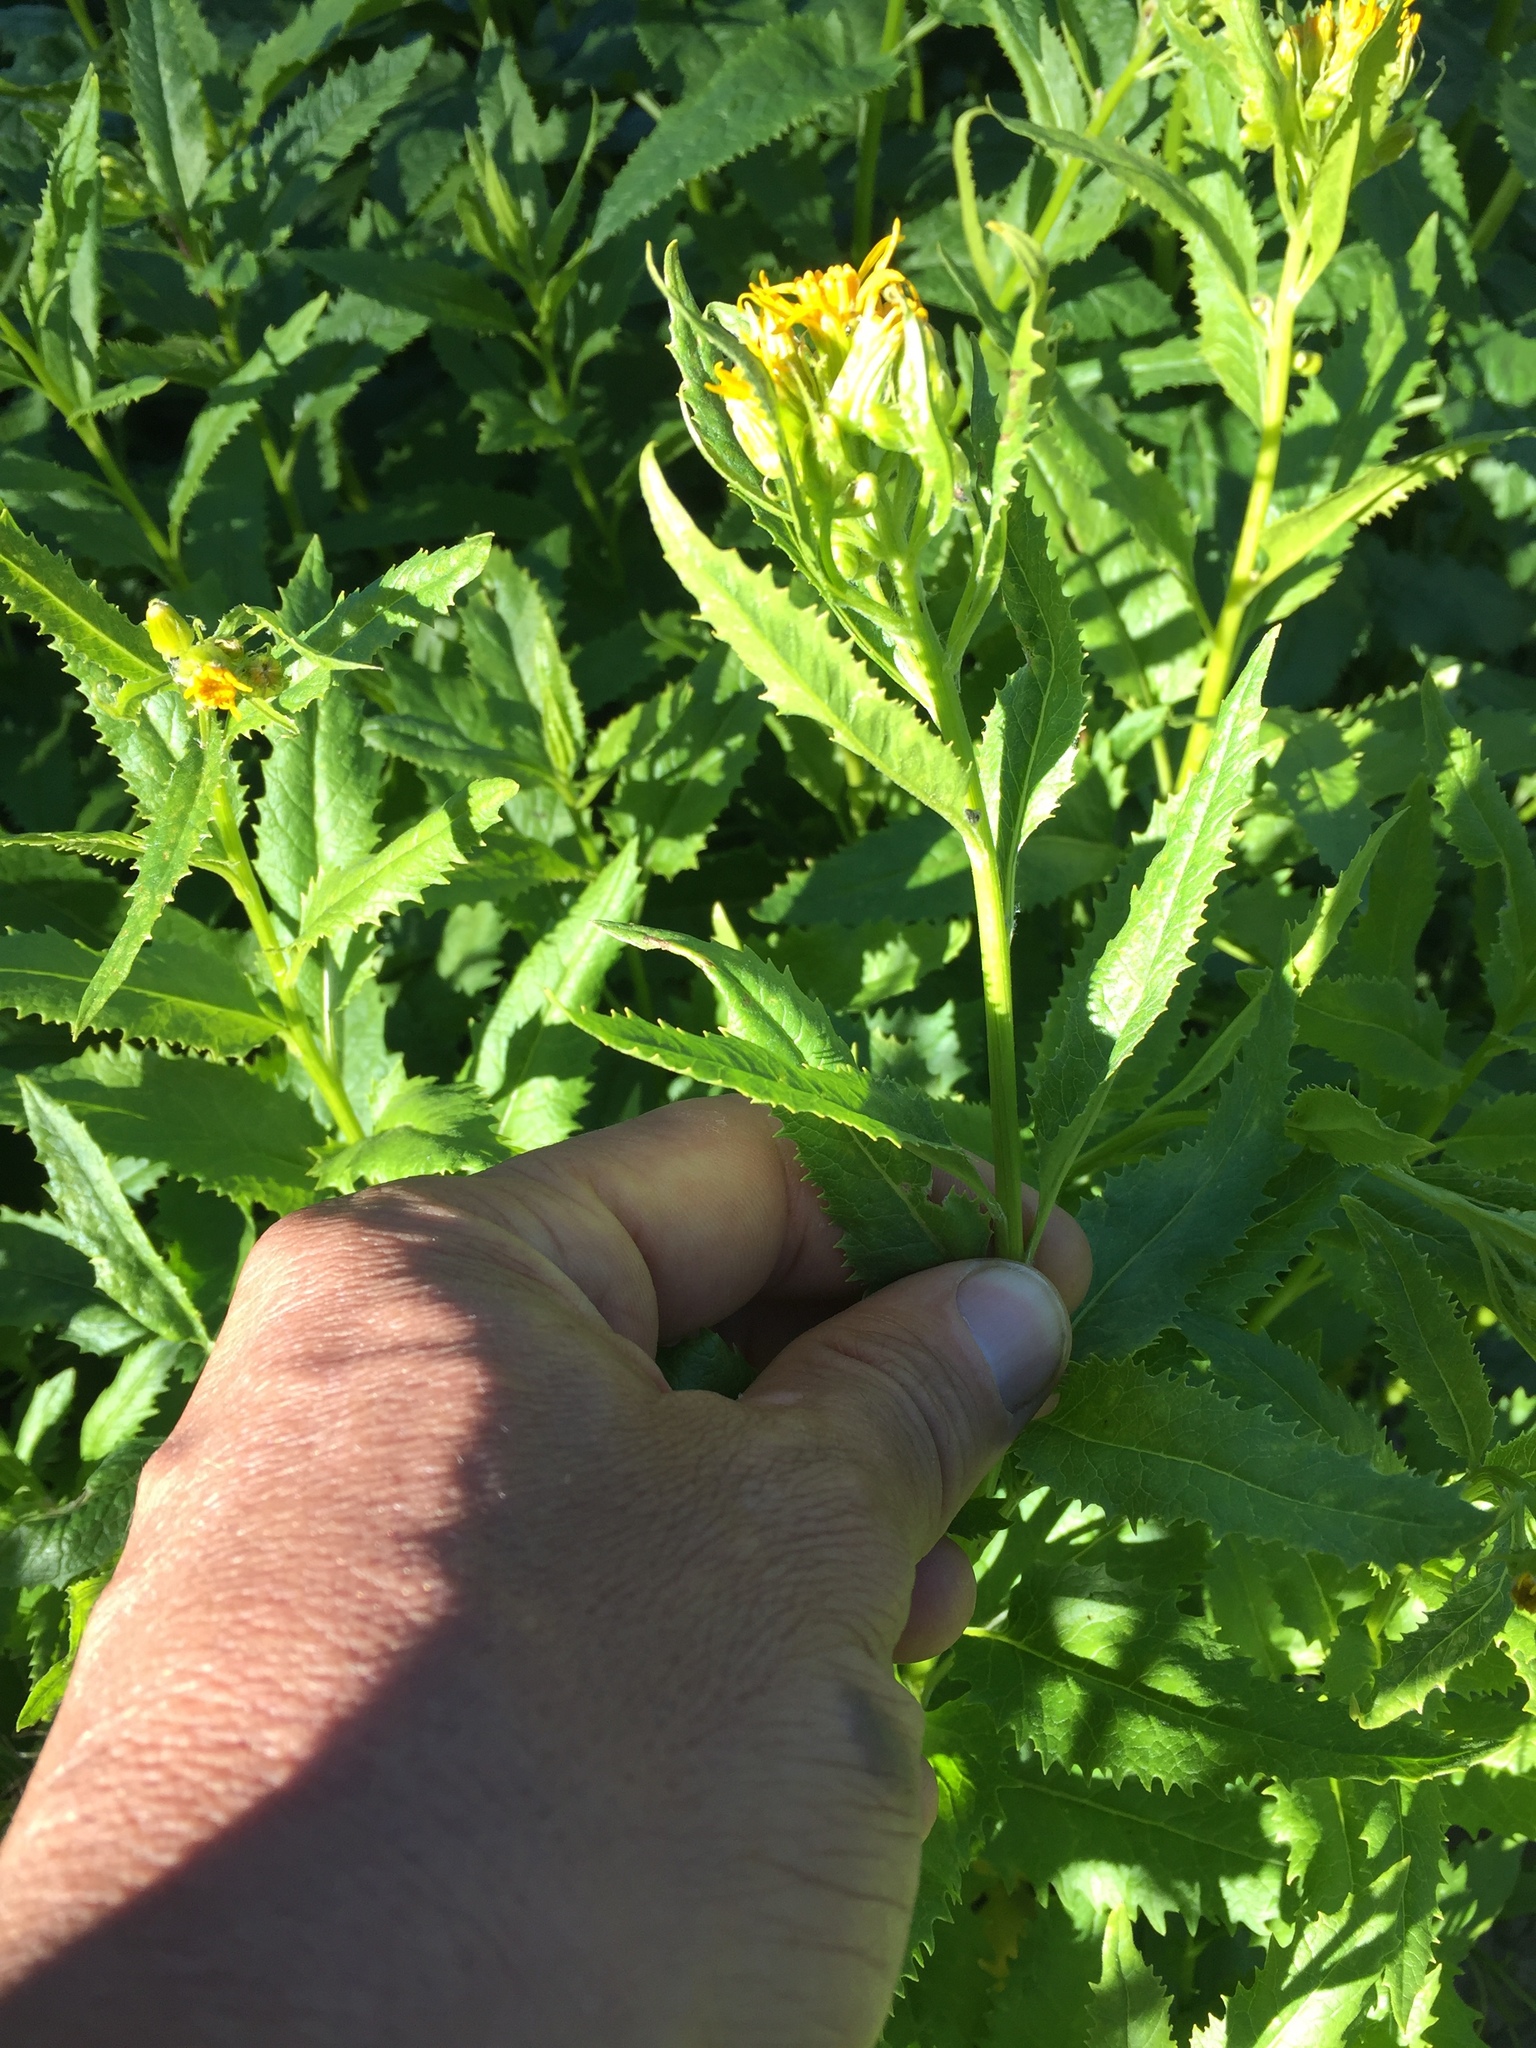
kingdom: Plantae
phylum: Tracheophyta
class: Magnoliopsida
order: Asterales
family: Asteraceae
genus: Senecio
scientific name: Senecio triangularis
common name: Arrowleaf butterweed
